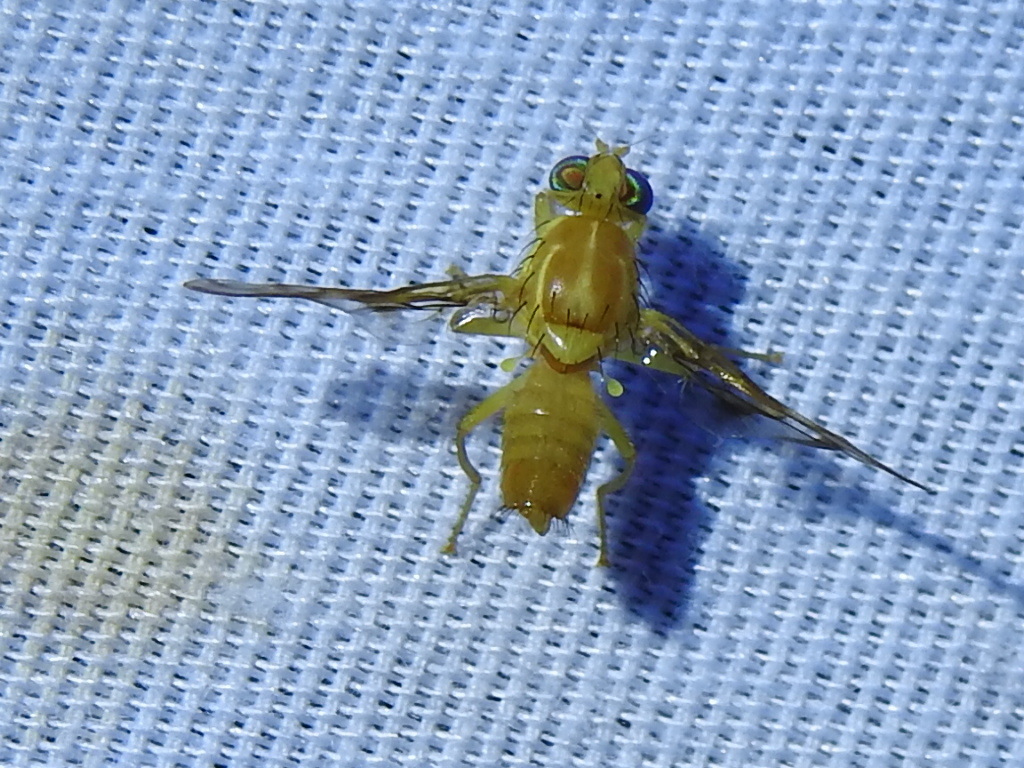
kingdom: Animalia
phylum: Arthropoda
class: Insecta
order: Diptera
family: Tephritidae
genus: Anastrepha
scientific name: Anastrepha ludens
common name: Mexican fruit fly
